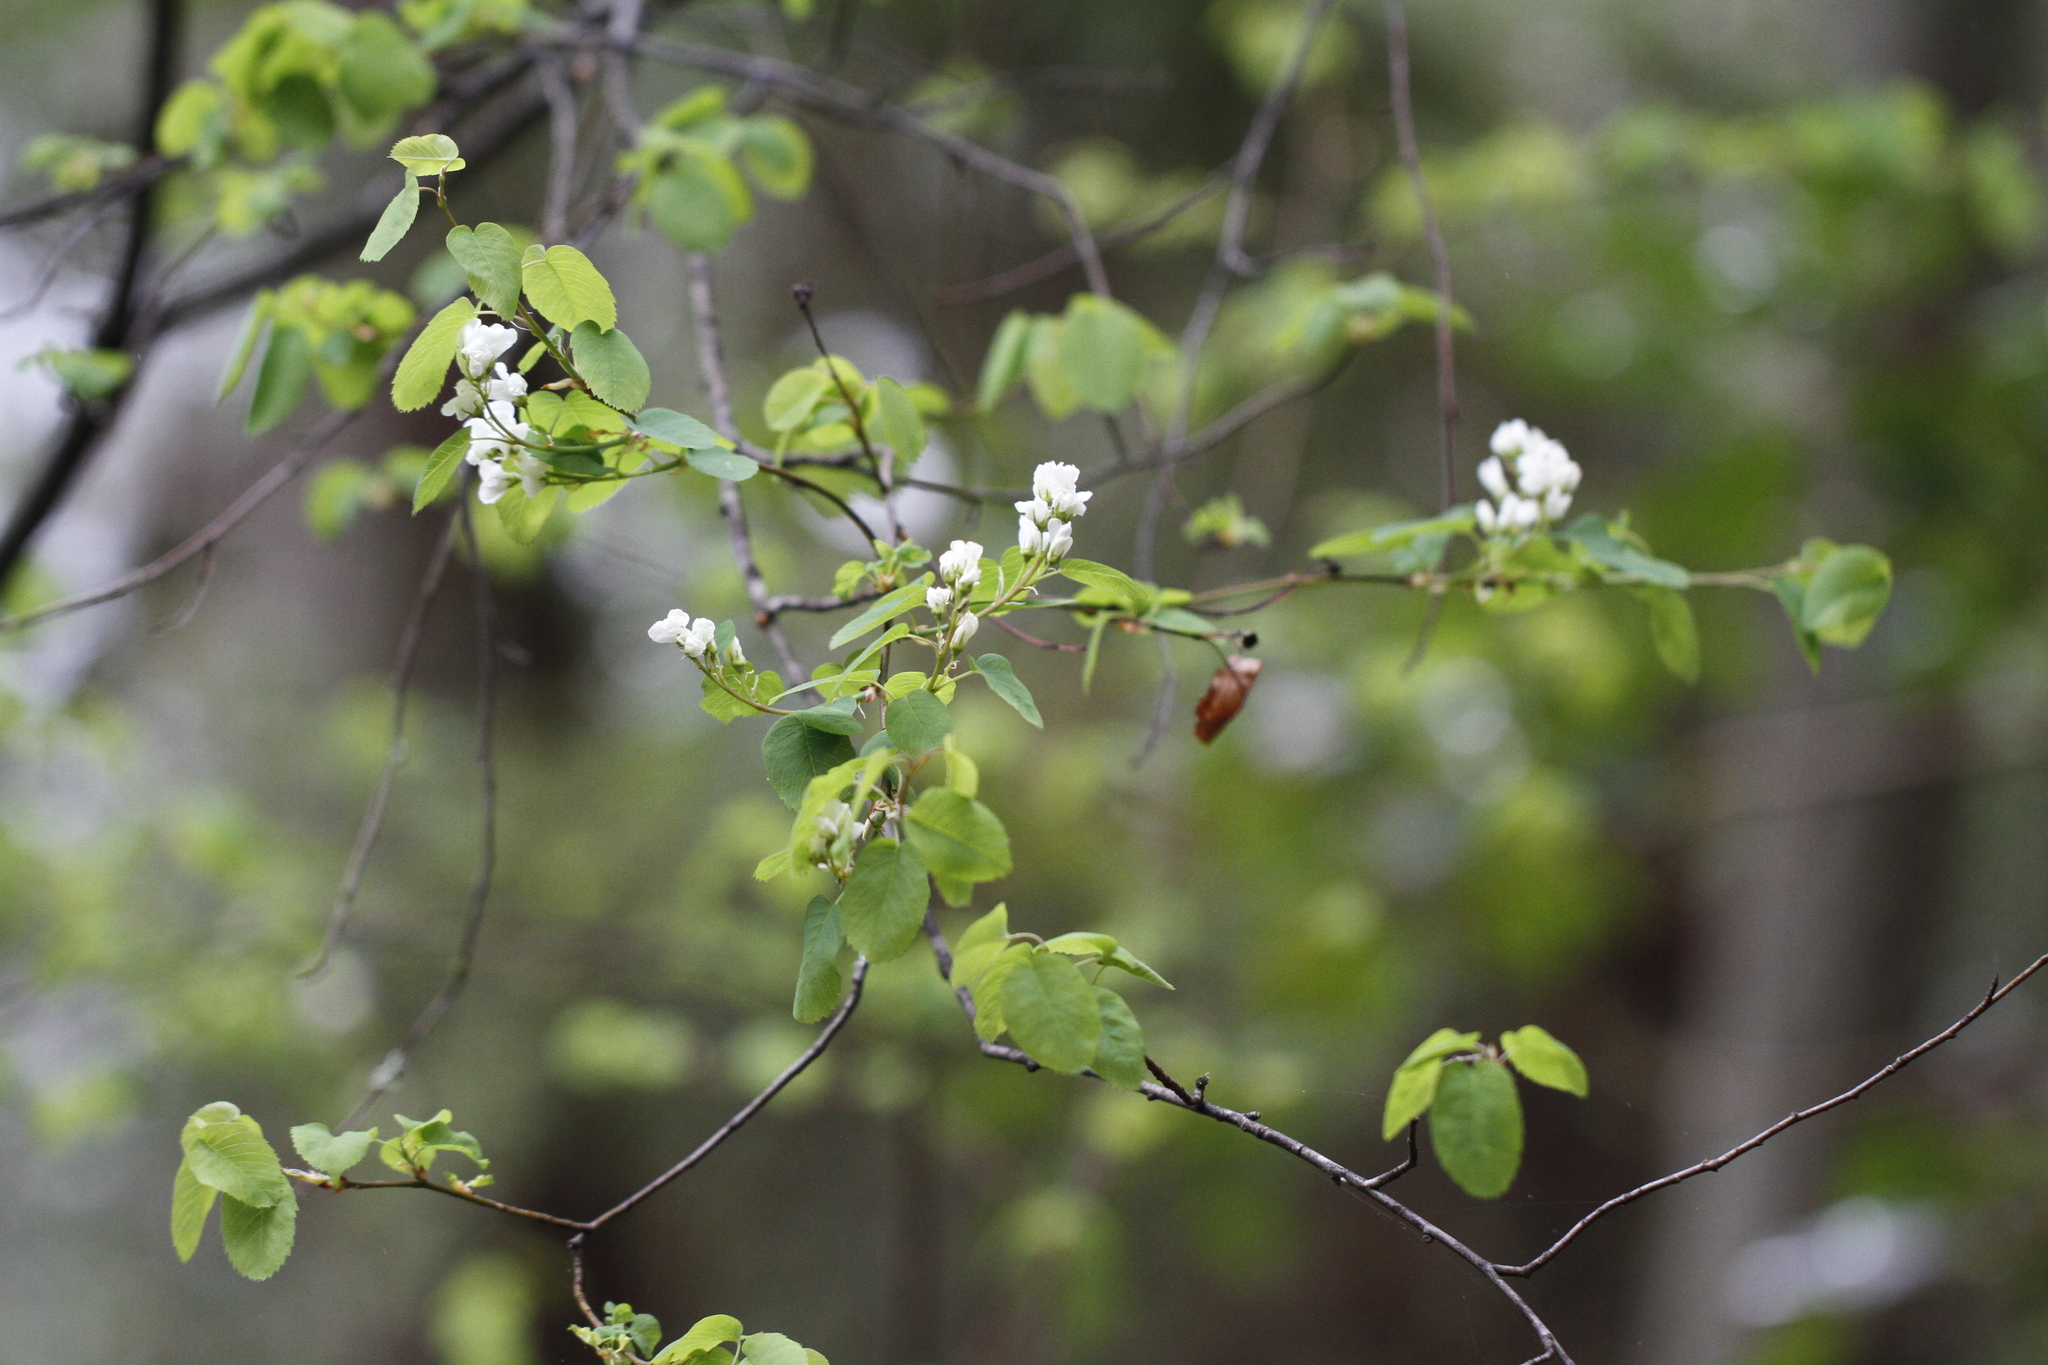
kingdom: Plantae
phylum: Tracheophyta
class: Magnoliopsida
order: Rosales
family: Rosaceae
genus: Amelanchier
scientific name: Amelanchier alnifolia
